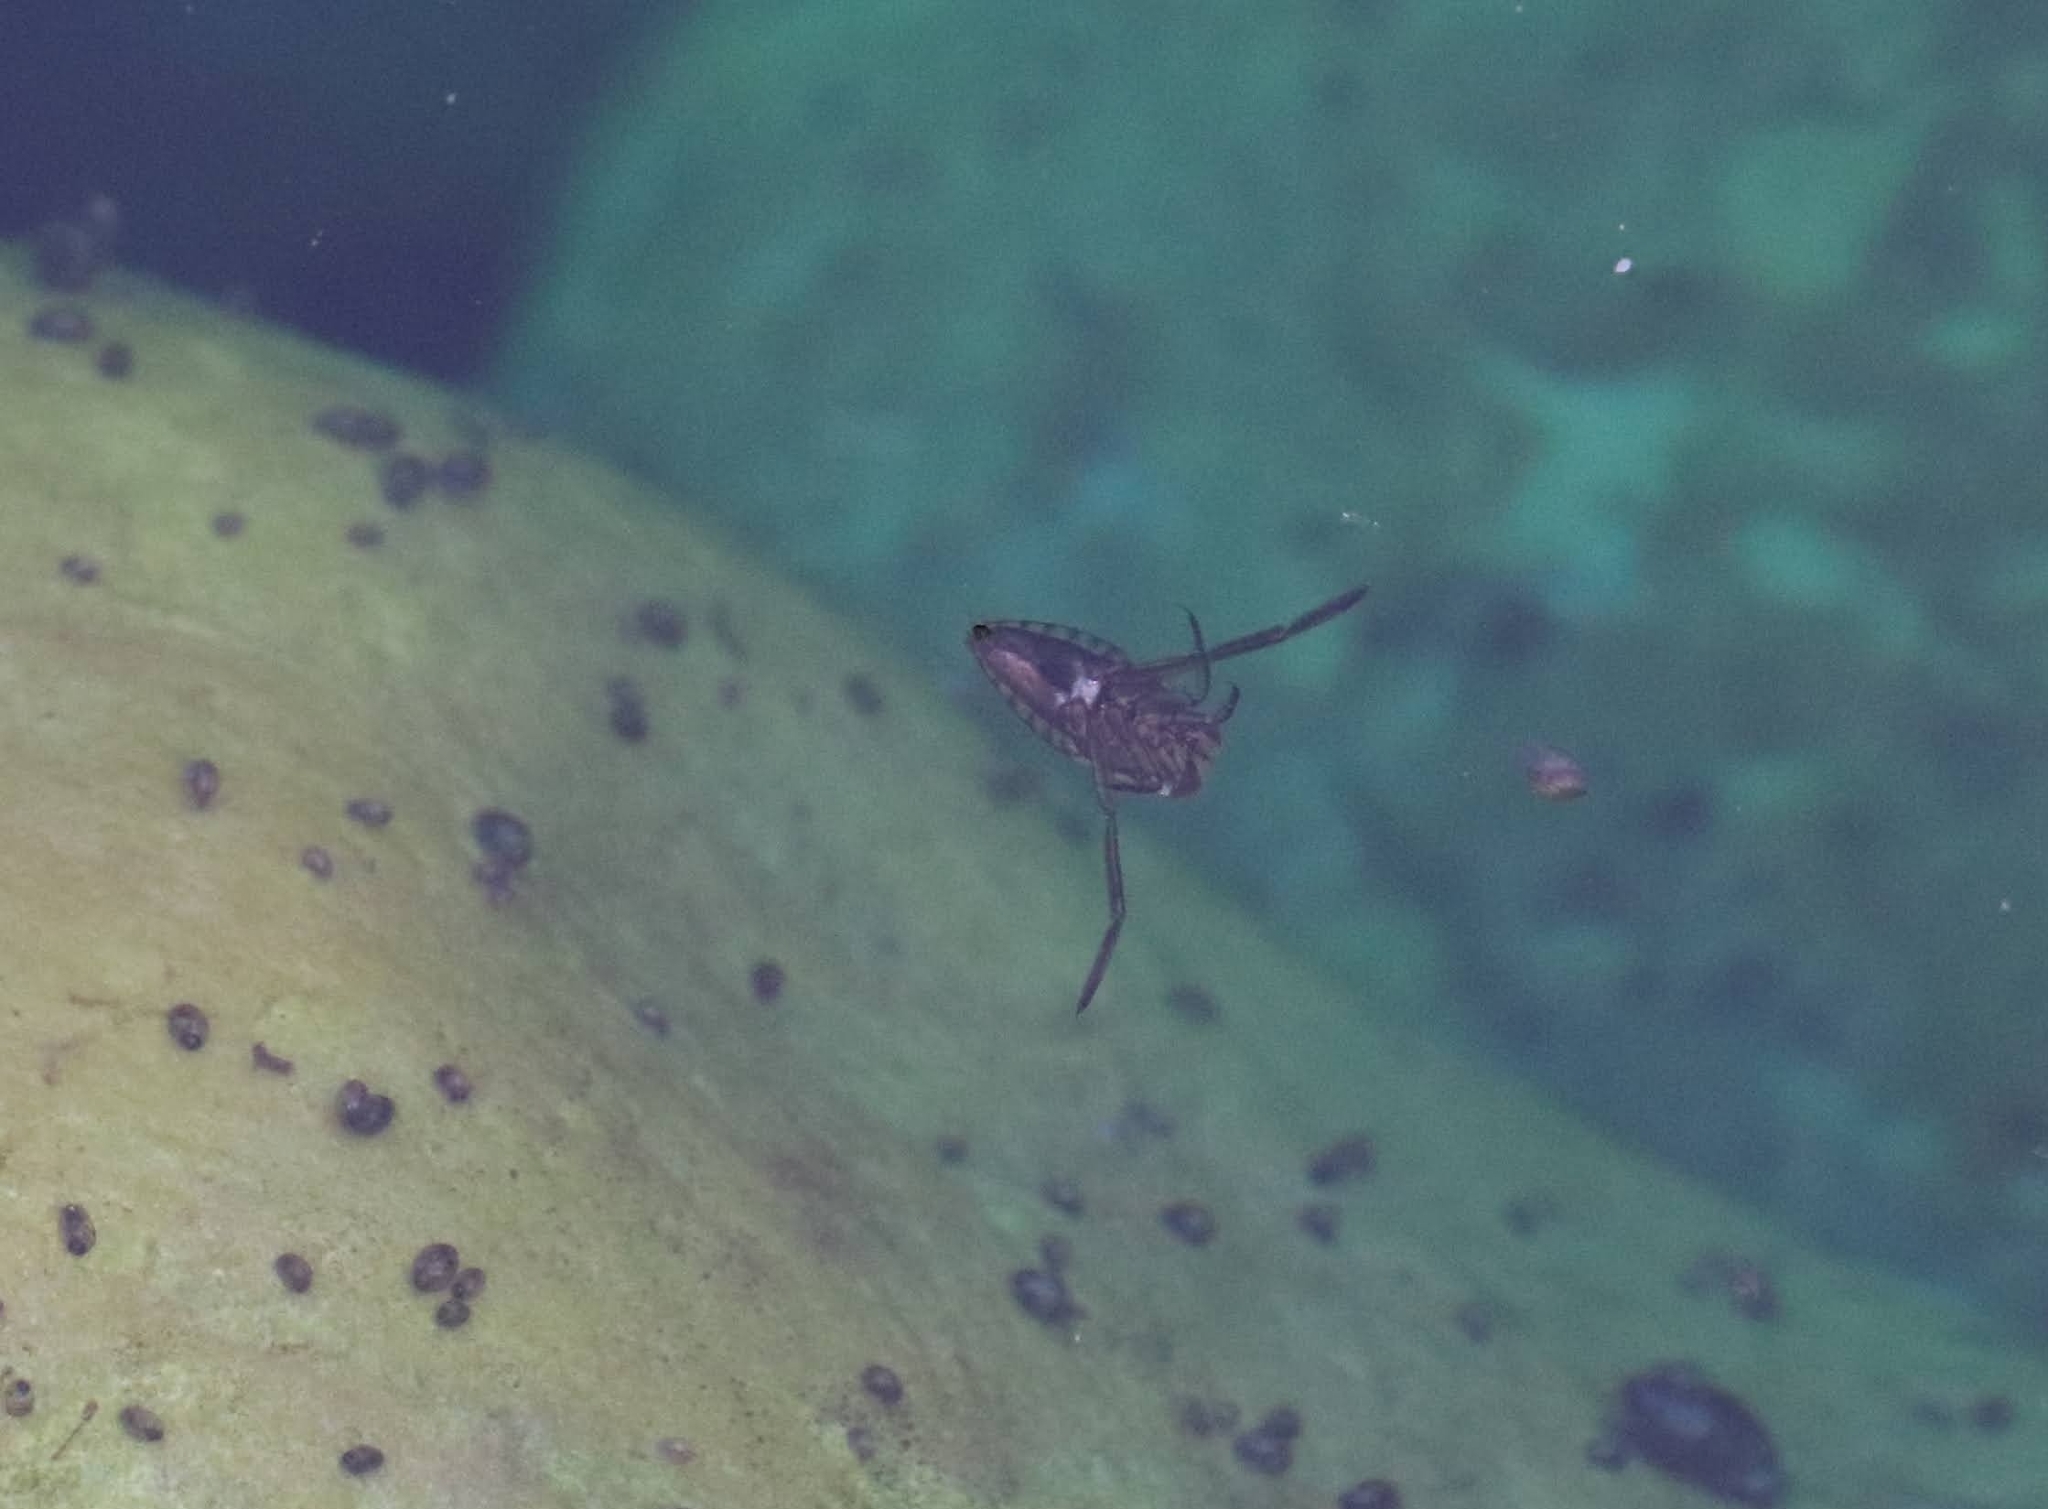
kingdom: Animalia
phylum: Arthropoda
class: Insecta
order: Hemiptera
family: Notonectidae
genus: Notonecta
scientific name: Notonecta
